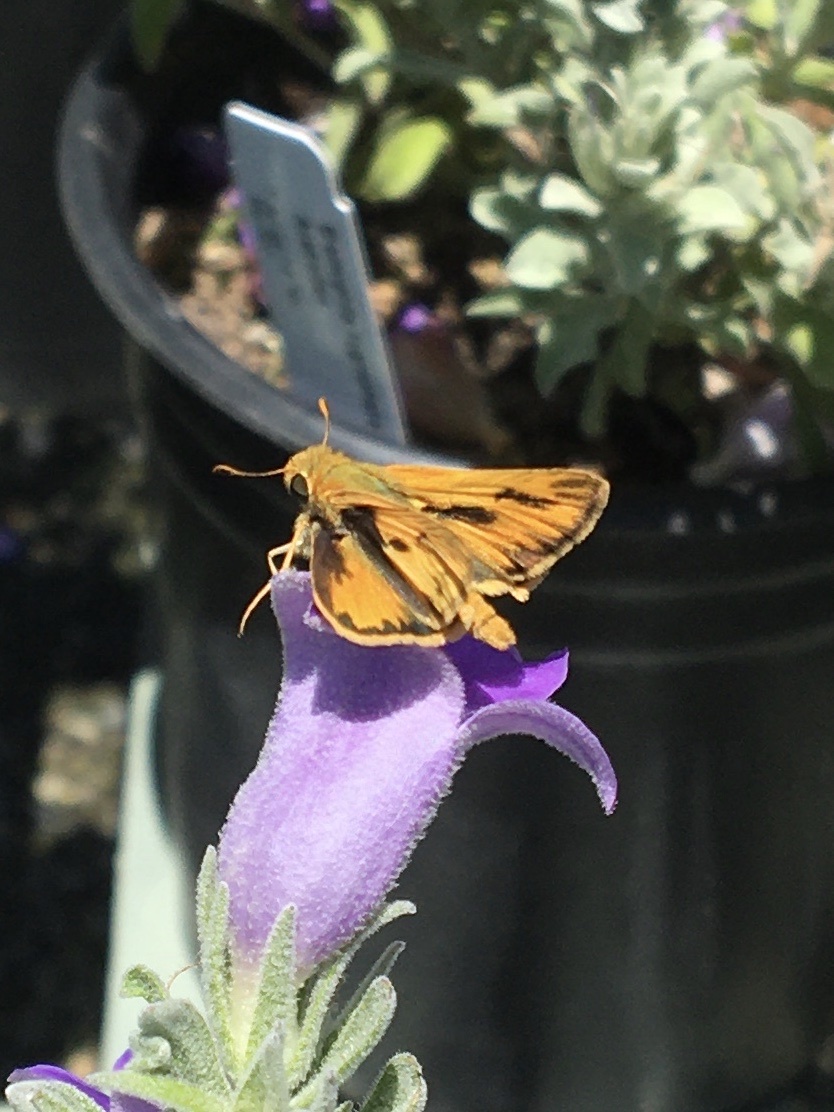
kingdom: Animalia
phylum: Arthropoda
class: Insecta
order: Lepidoptera
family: Hesperiidae
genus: Hylephila
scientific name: Hylephila phyleus
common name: Fiery skipper
